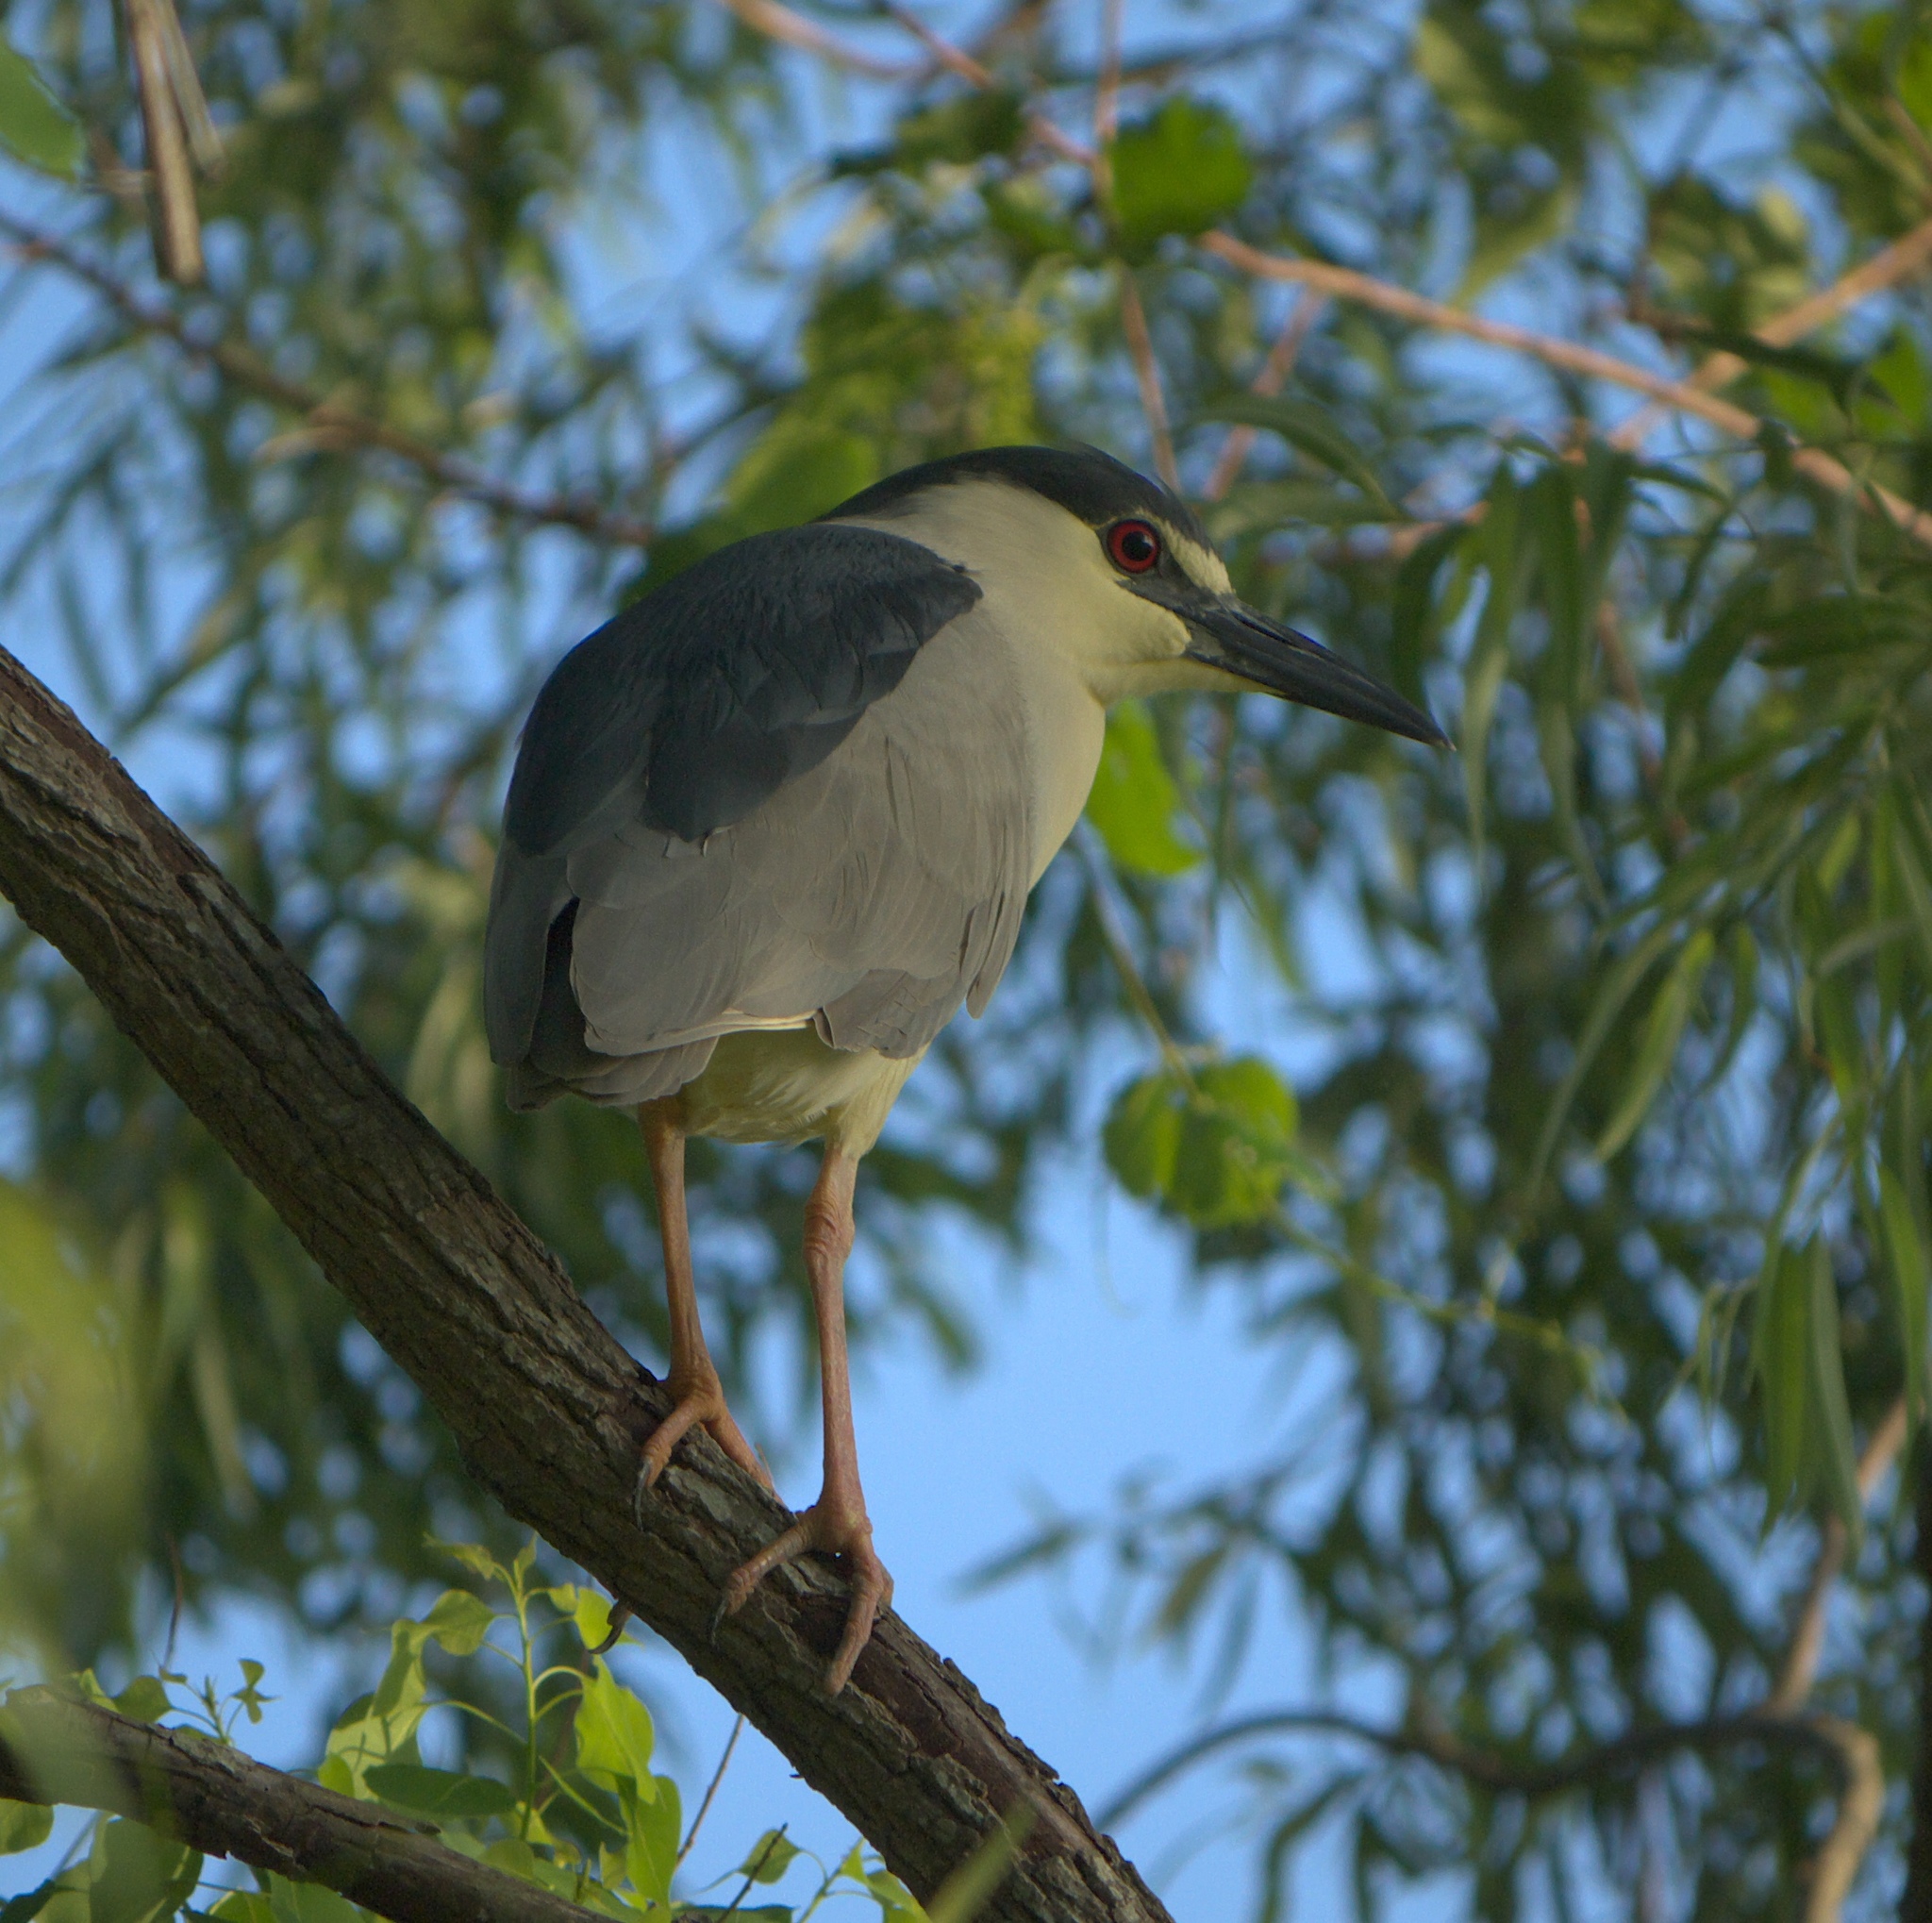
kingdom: Animalia
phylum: Chordata
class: Aves
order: Pelecaniformes
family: Ardeidae
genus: Nycticorax
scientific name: Nycticorax nycticorax
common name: Black-crowned night heron
